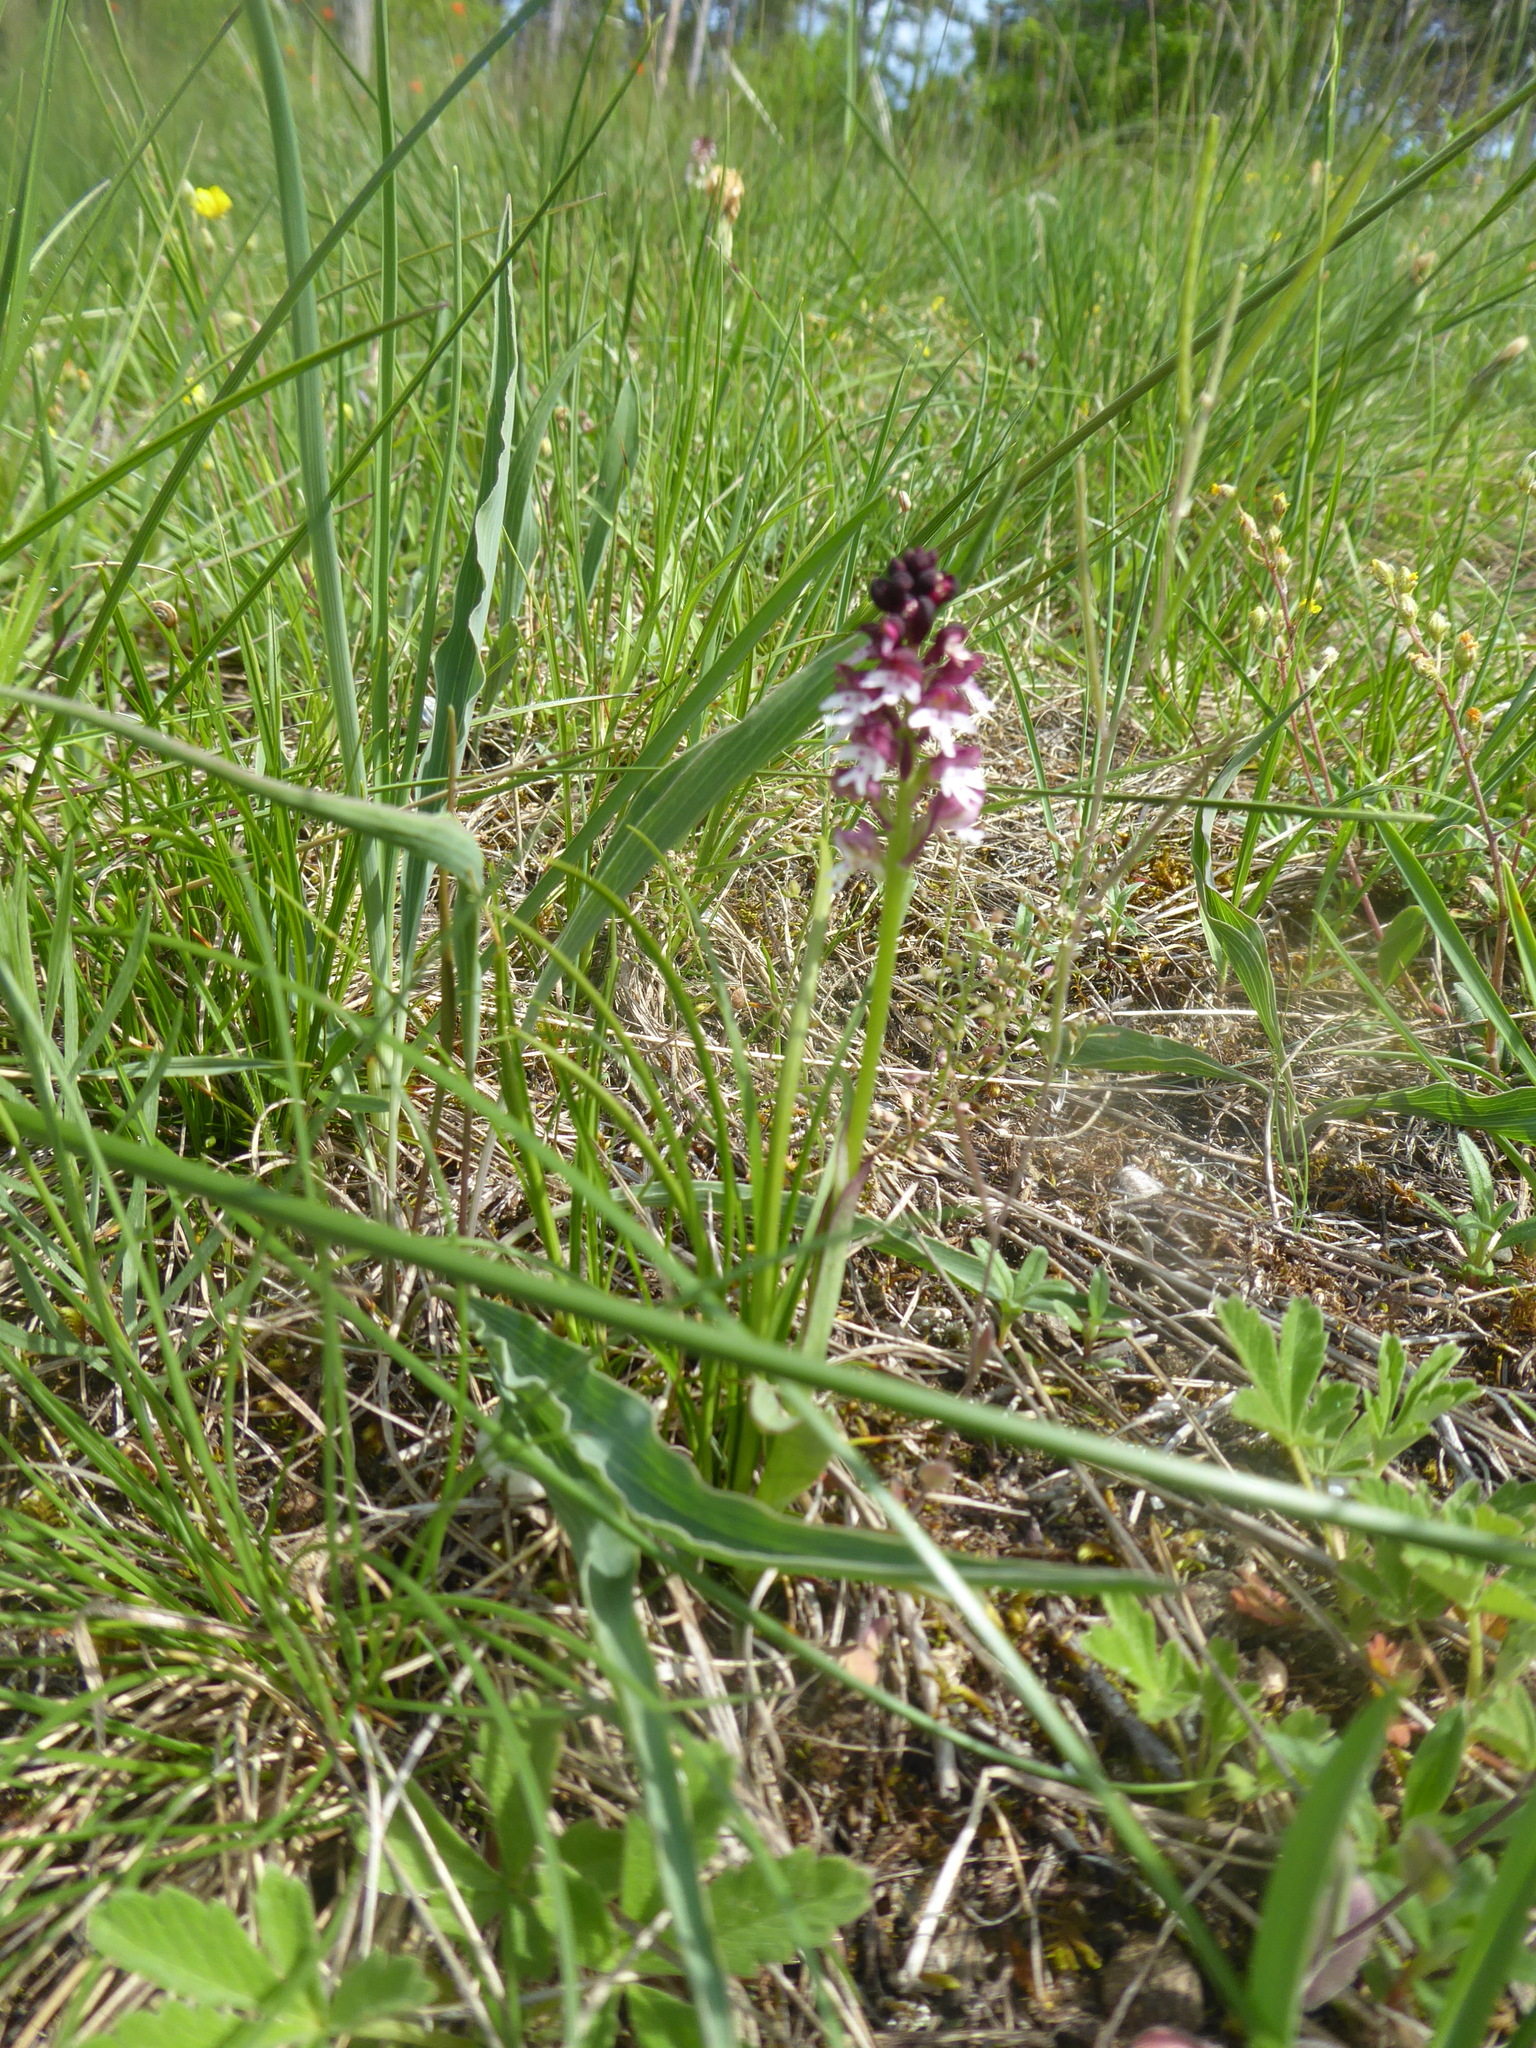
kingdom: Plantae
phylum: Tracheophyta
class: Liliopsida
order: Asparagales
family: Orchidaceae
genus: Neotinea
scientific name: Neotinea ustulata
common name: Burnt orchid
